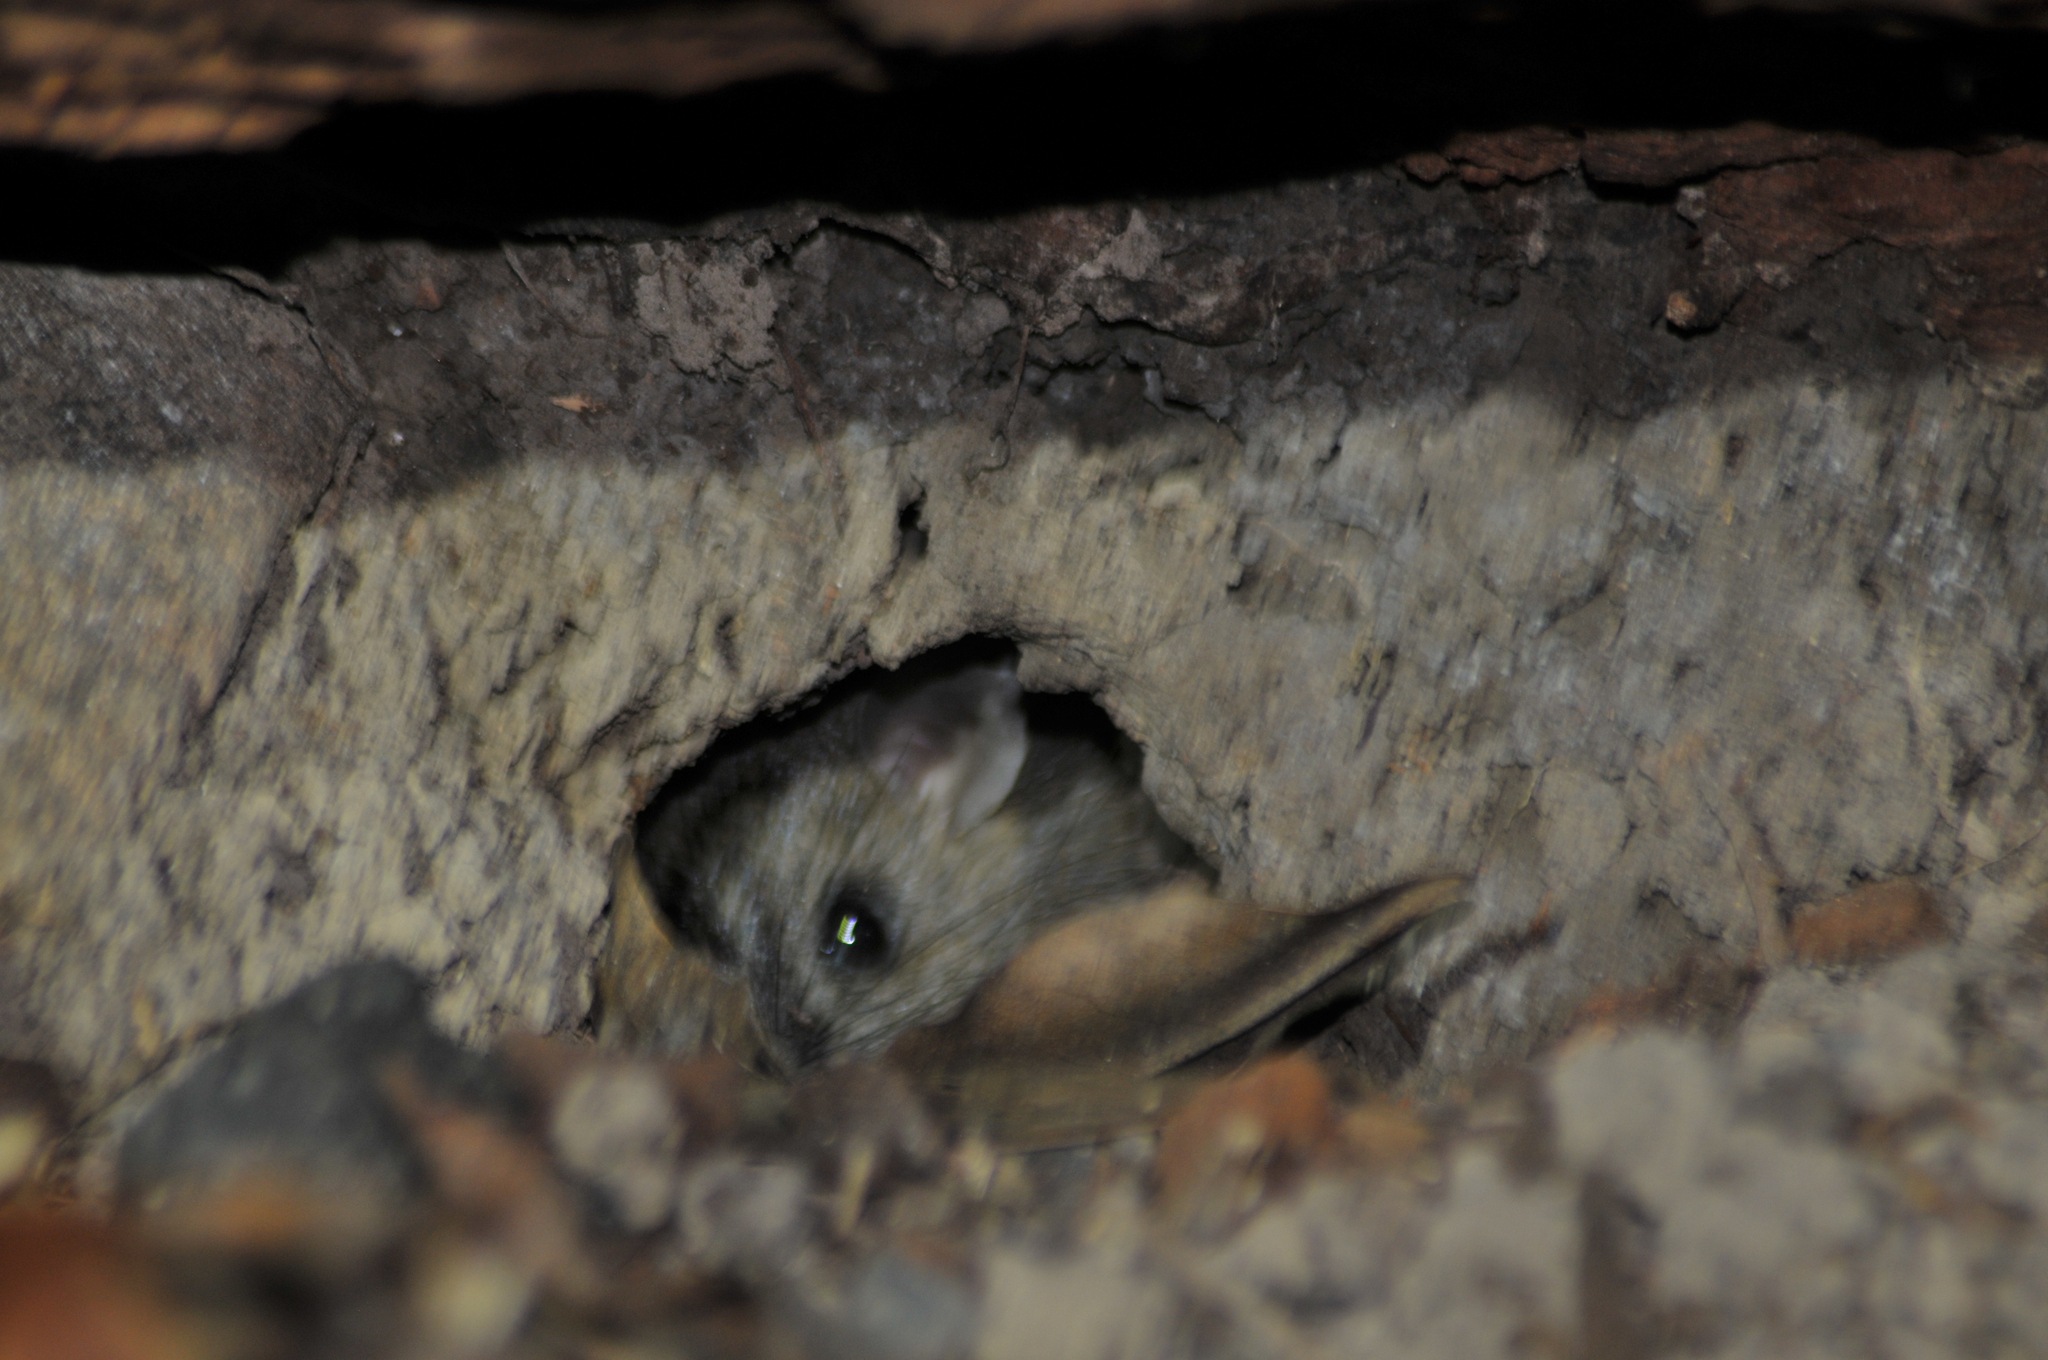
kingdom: Animalia
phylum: Chordata
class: Mammalia
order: Rodentia
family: Muridae
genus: Rattus
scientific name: Rattus fuscipes
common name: Australian bush rat
